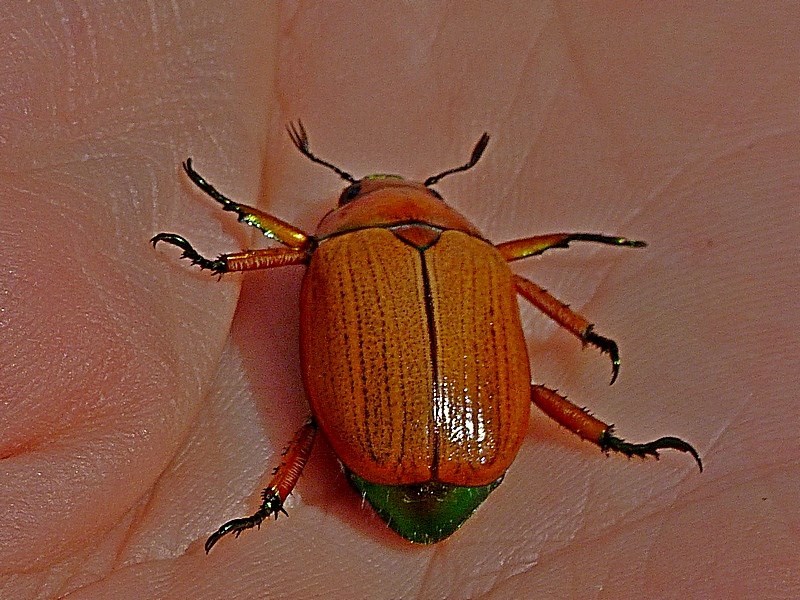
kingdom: Animalia
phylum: Arthropoda
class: Insecta
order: Coleoptera
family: Scarabaeidae
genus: Anoplognathus
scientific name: Anoplognathus brunnipennis
